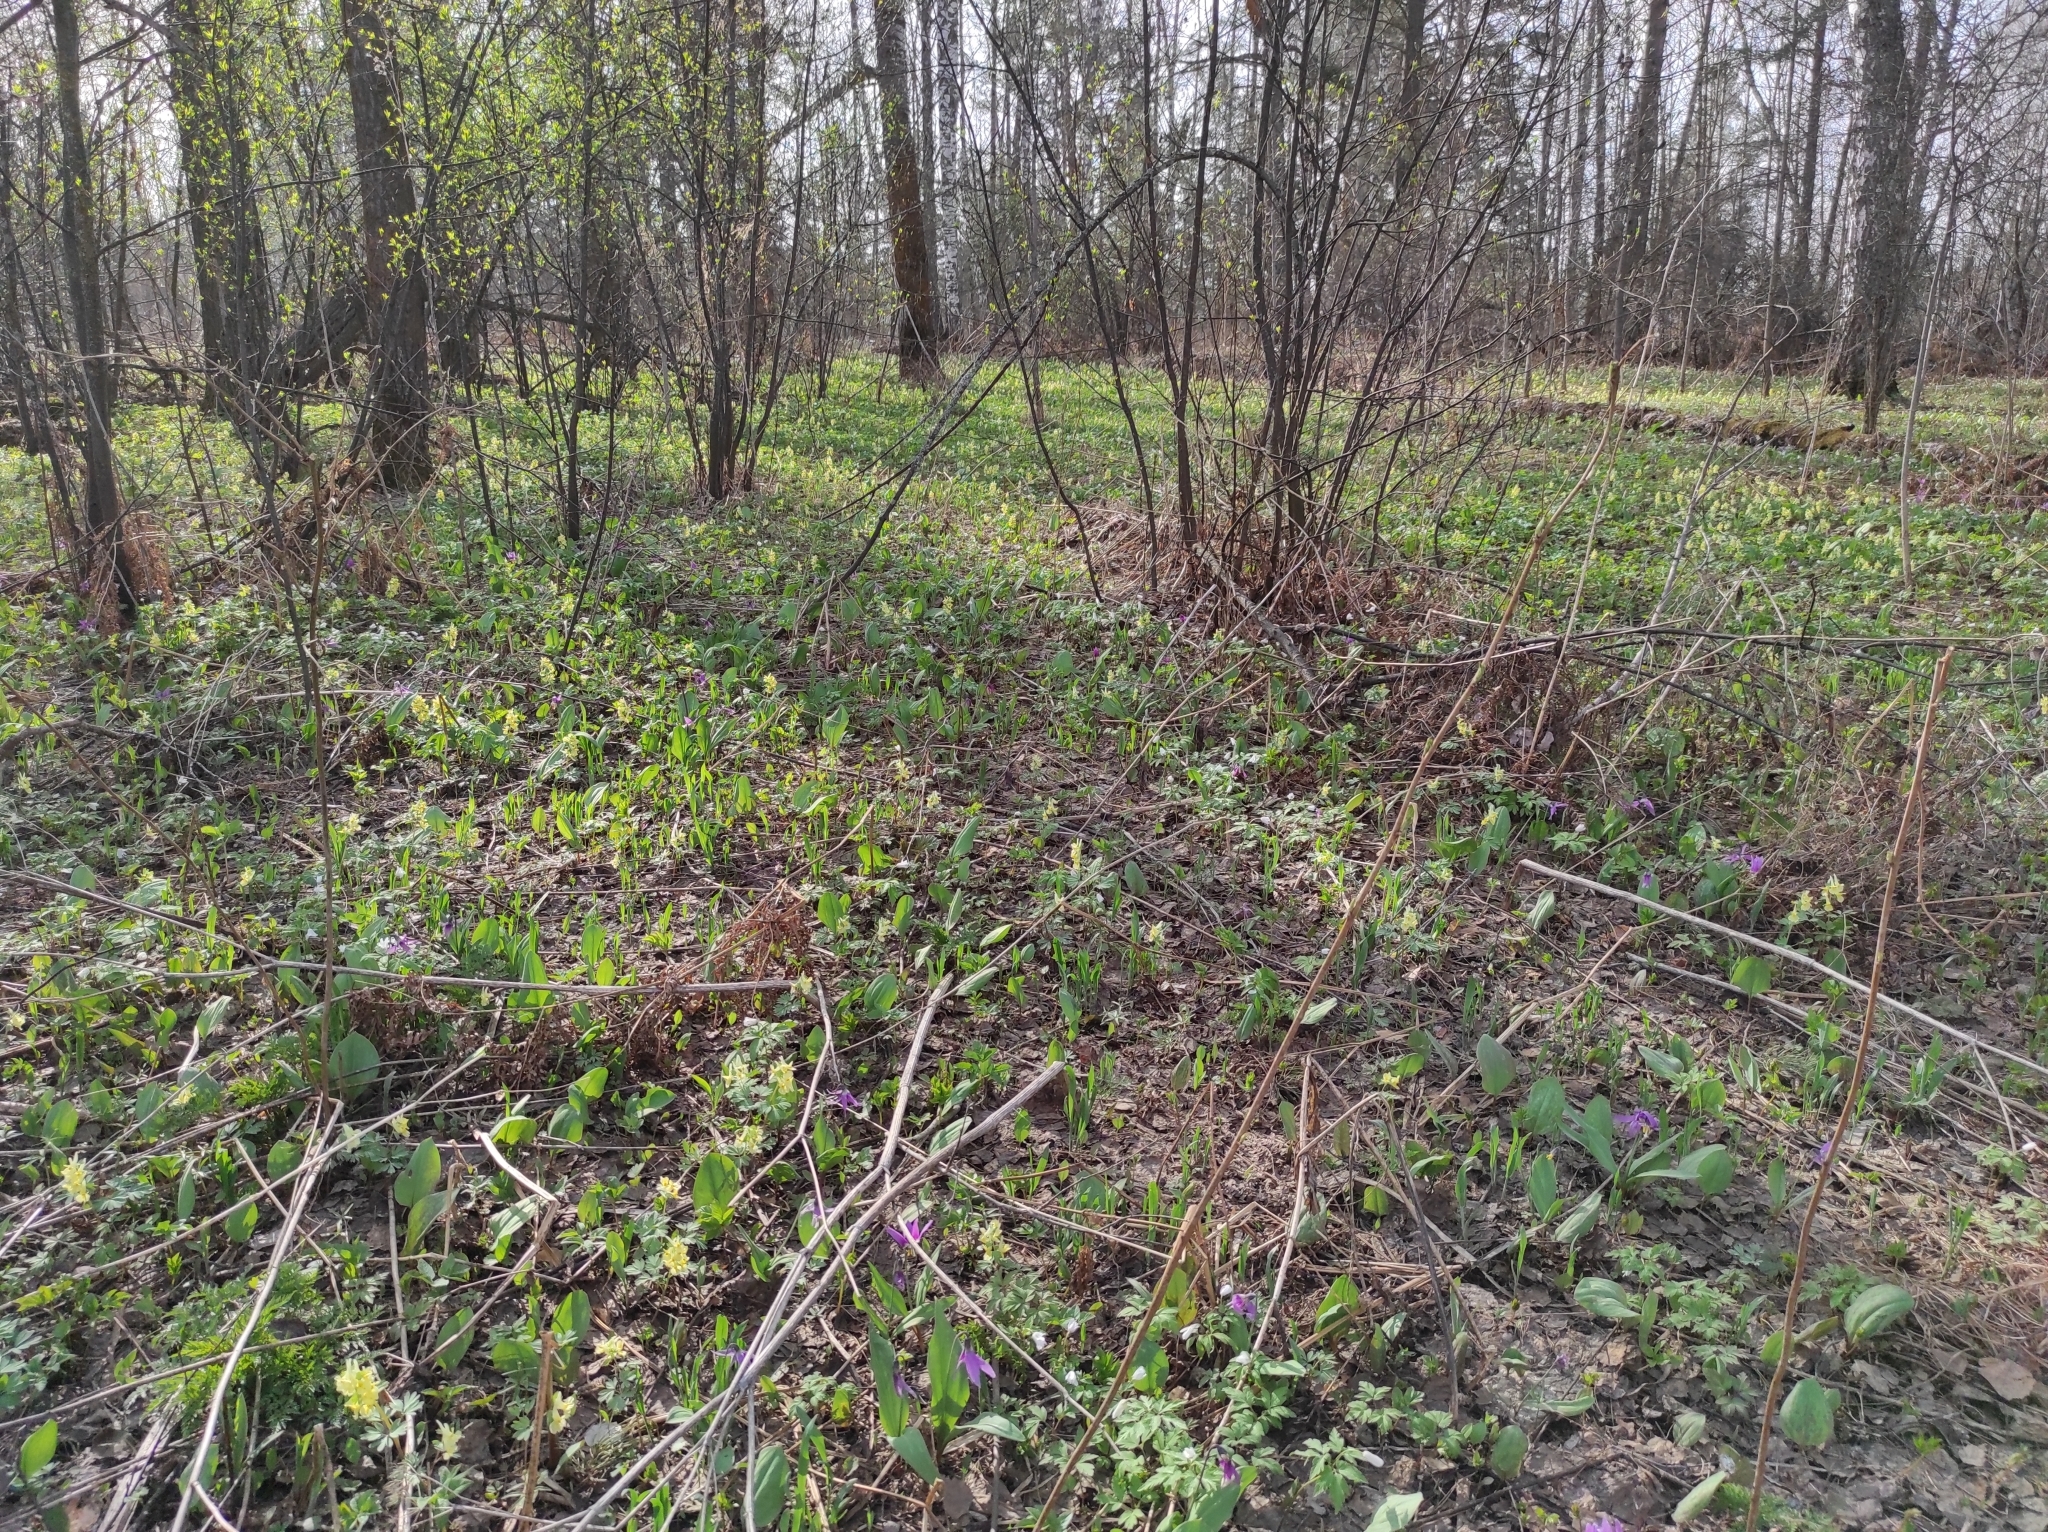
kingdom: Plantae
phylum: Tracheophyta
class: Magnoliopsida
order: Ranunculales
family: Ranunculaceae
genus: Anemone
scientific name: Anemone altaica
